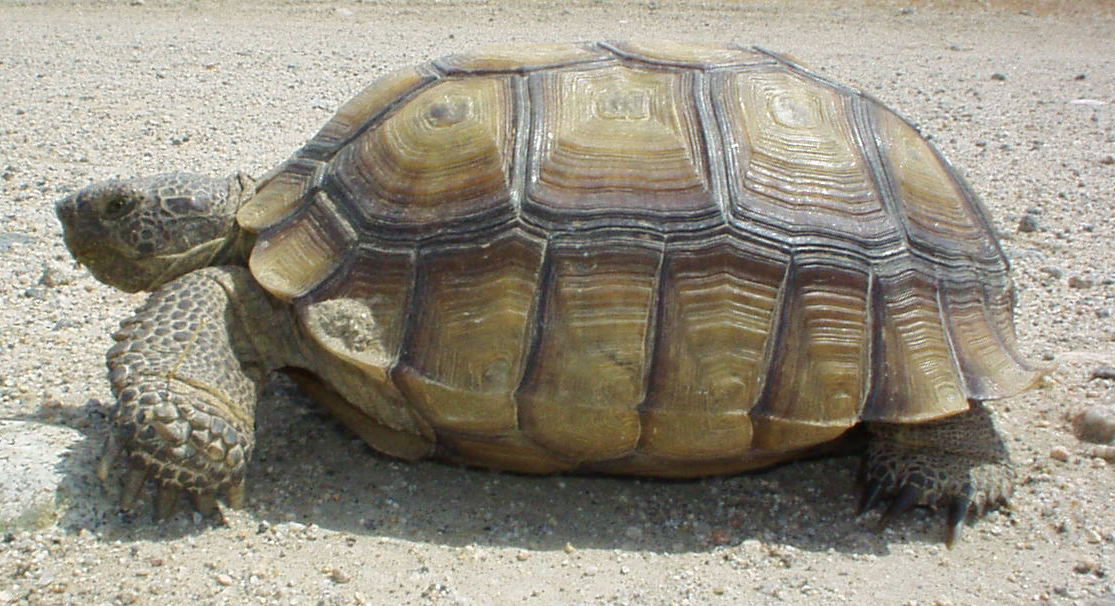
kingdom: Animalia
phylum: Chordata
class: Testudines
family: Testudinidae
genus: Gopherus
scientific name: Gopherus agassizii
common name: Mojave desert tortoise
